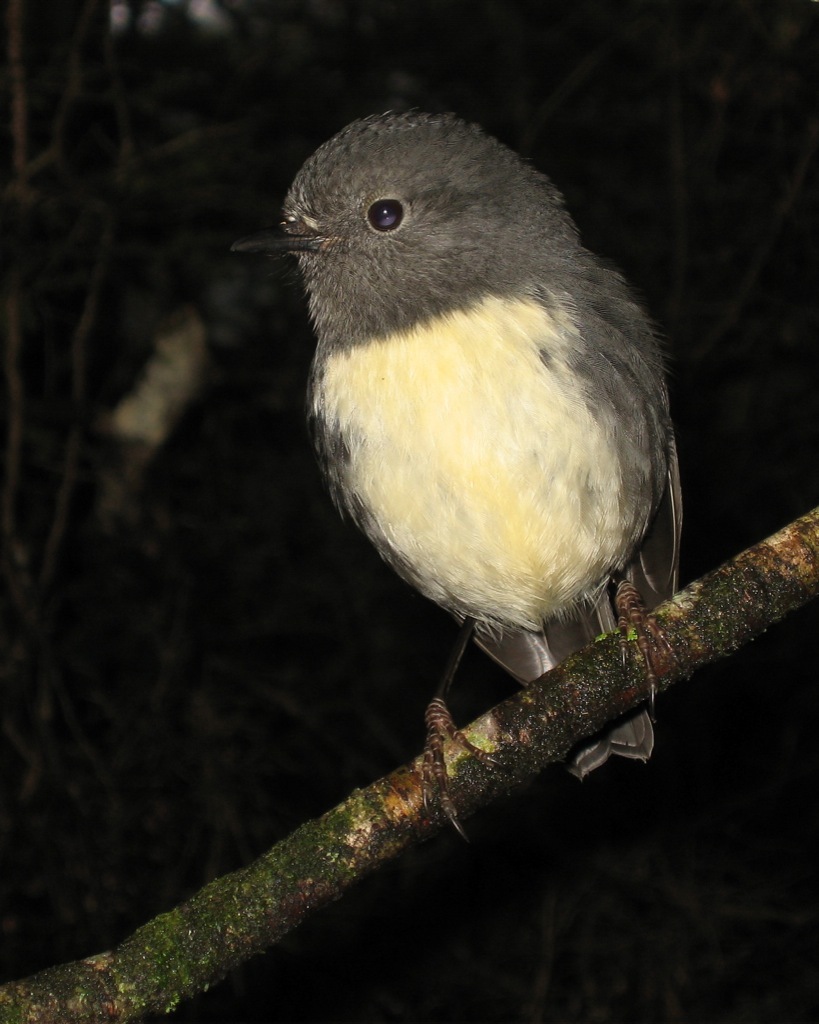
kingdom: Animalia
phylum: Chordata
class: Aves
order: Passeriformes
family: Petroicidae
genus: Petroica
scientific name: Petroica australis
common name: New zealand robin
